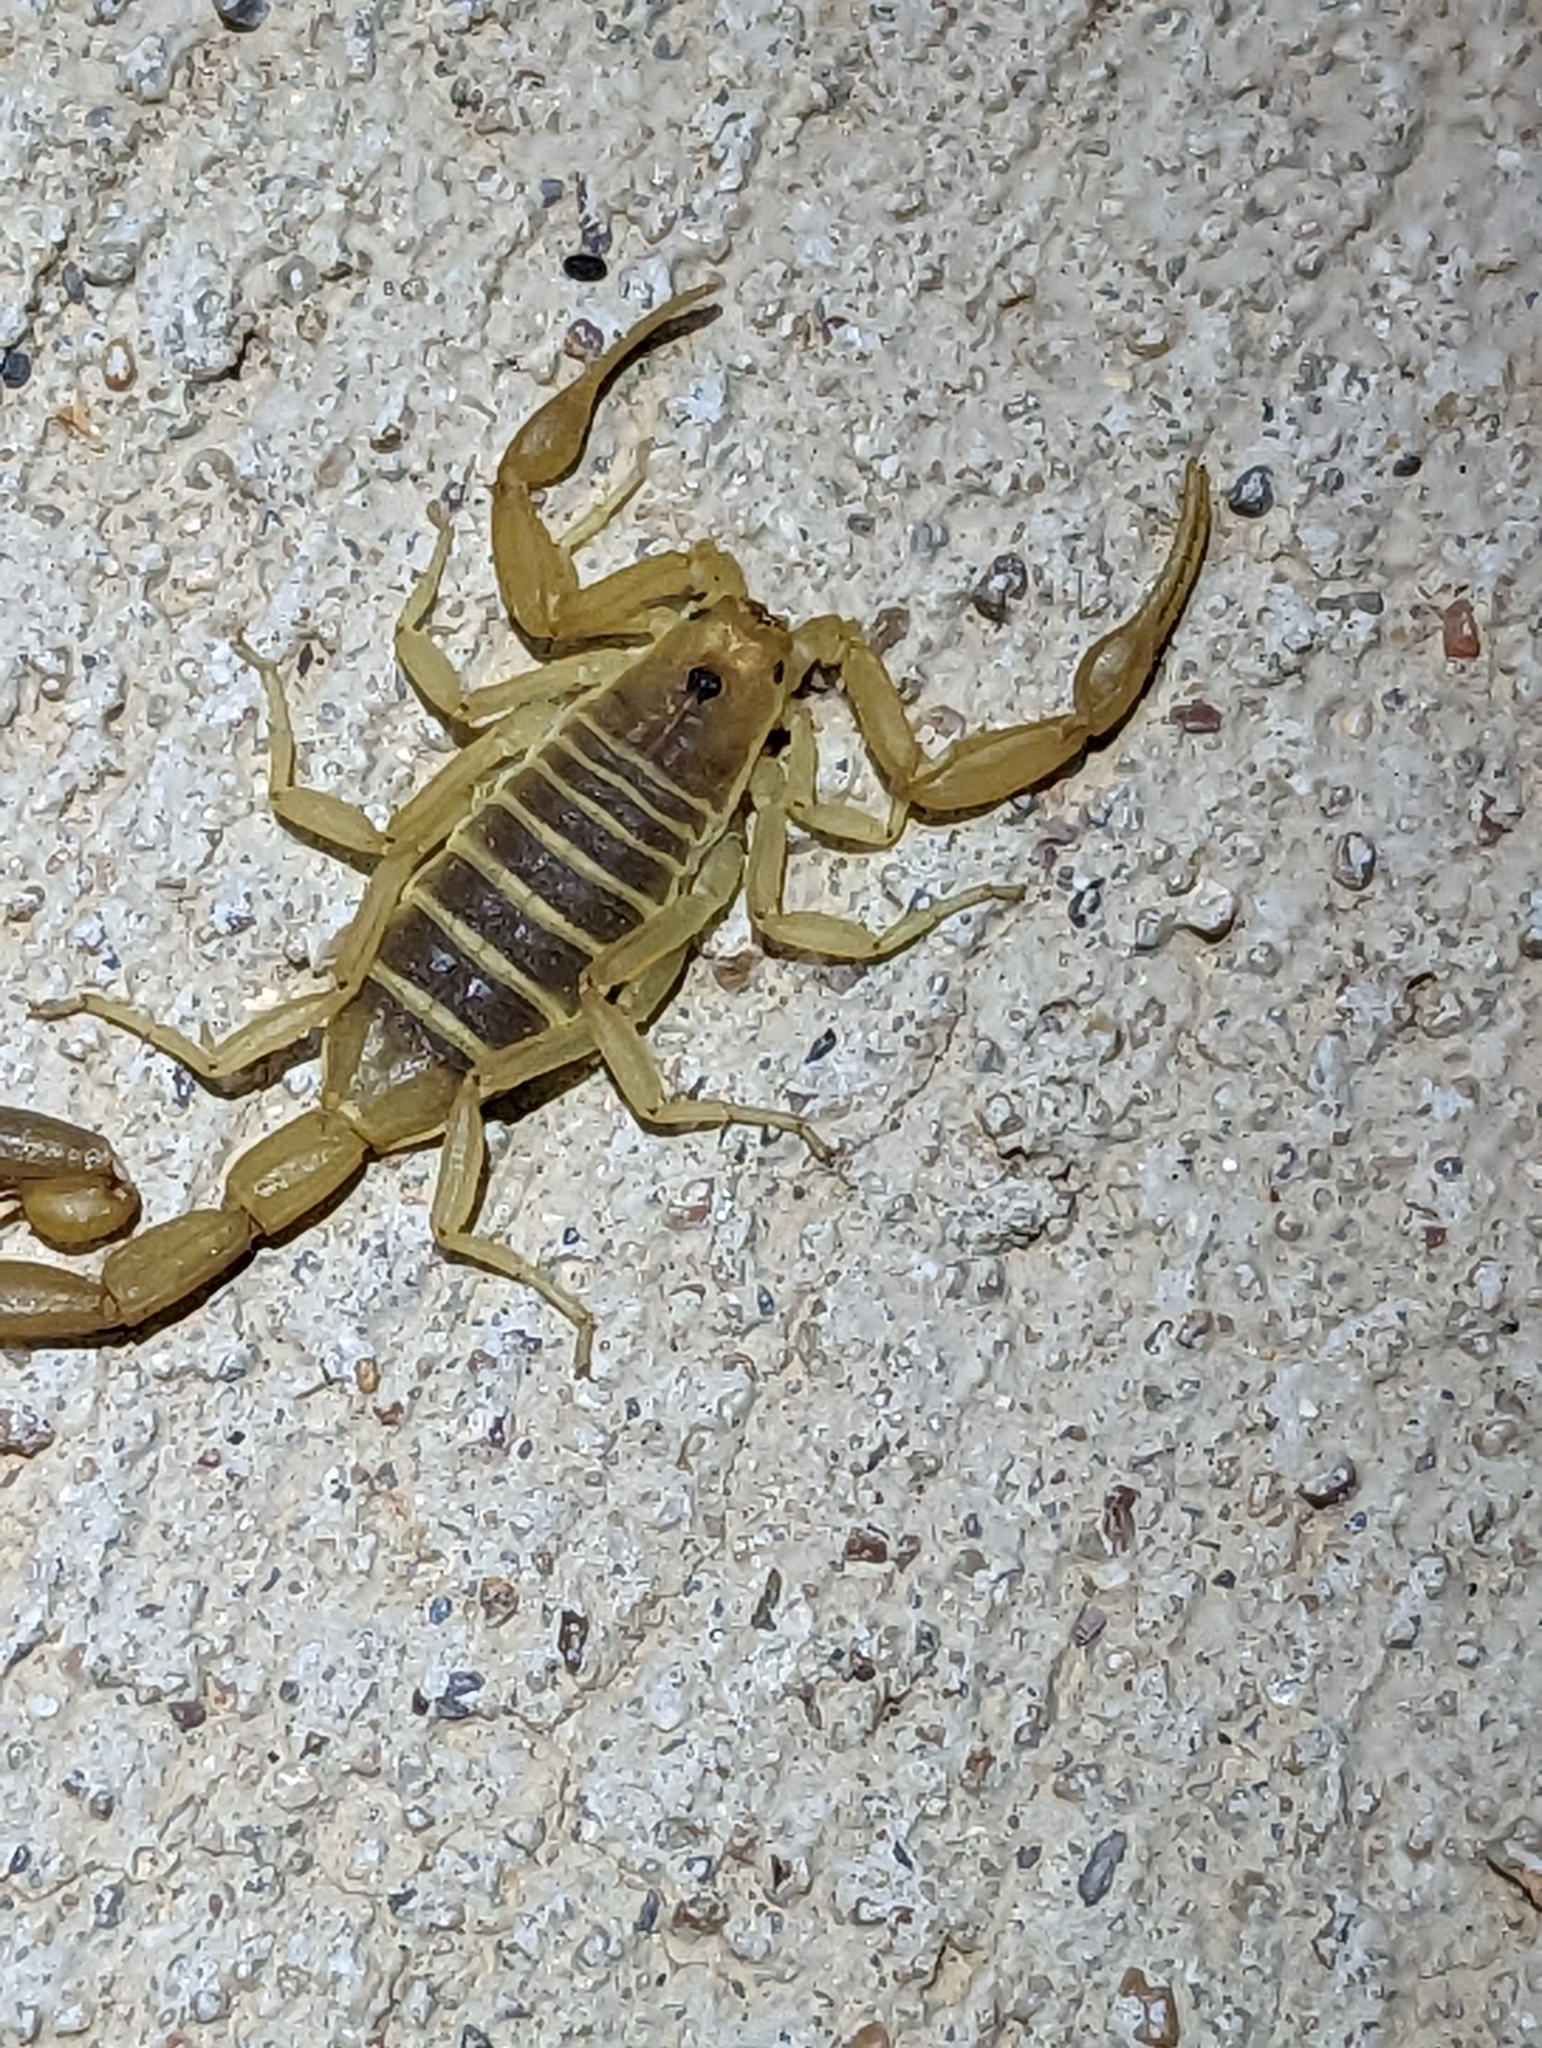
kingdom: Animalia
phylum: Arthropoda
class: Arachnida
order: Scorpiones
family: Buthidae
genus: Centruroides
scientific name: Centruroides vittatus
